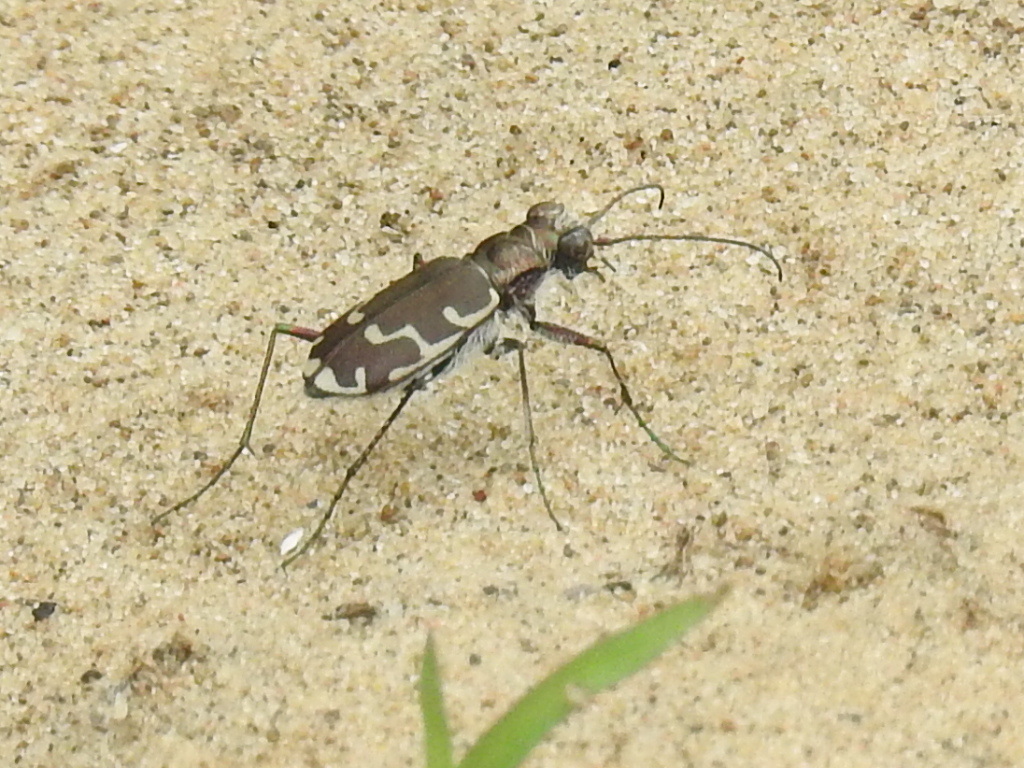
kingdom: Animalia
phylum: Arthropoda
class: Insecta
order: Coleoptera
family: Carabidae
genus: Cicindela
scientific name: Cicindela repanda
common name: Bronzed tiger beetle
